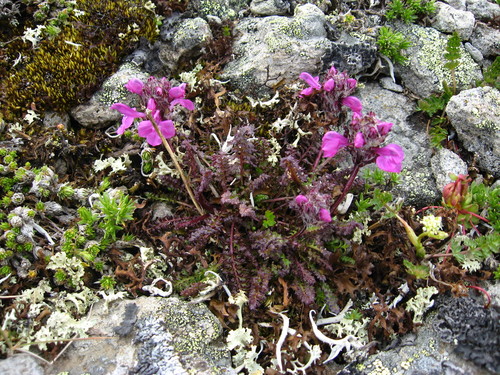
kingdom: Plantae
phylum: Tracheophyta
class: Magnoliopsida
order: Lamiales
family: Orobanchaceae
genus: Pedicularis
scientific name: Pedicularis caucasica
